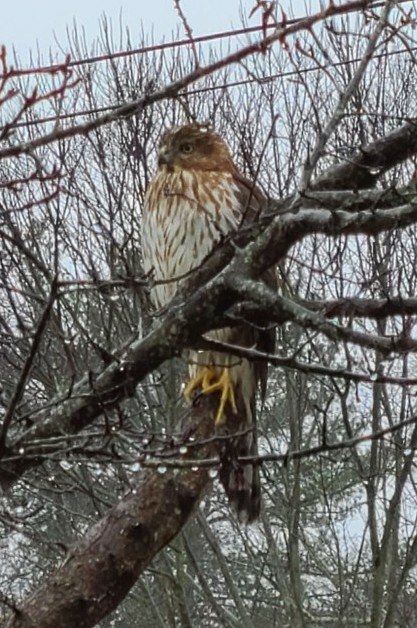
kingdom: Animalia
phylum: Chordata
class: Aves
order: Accipitriformes
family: Accipitridae
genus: Accipiter
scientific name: Accipiter cooperii
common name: Cooper's hawk
